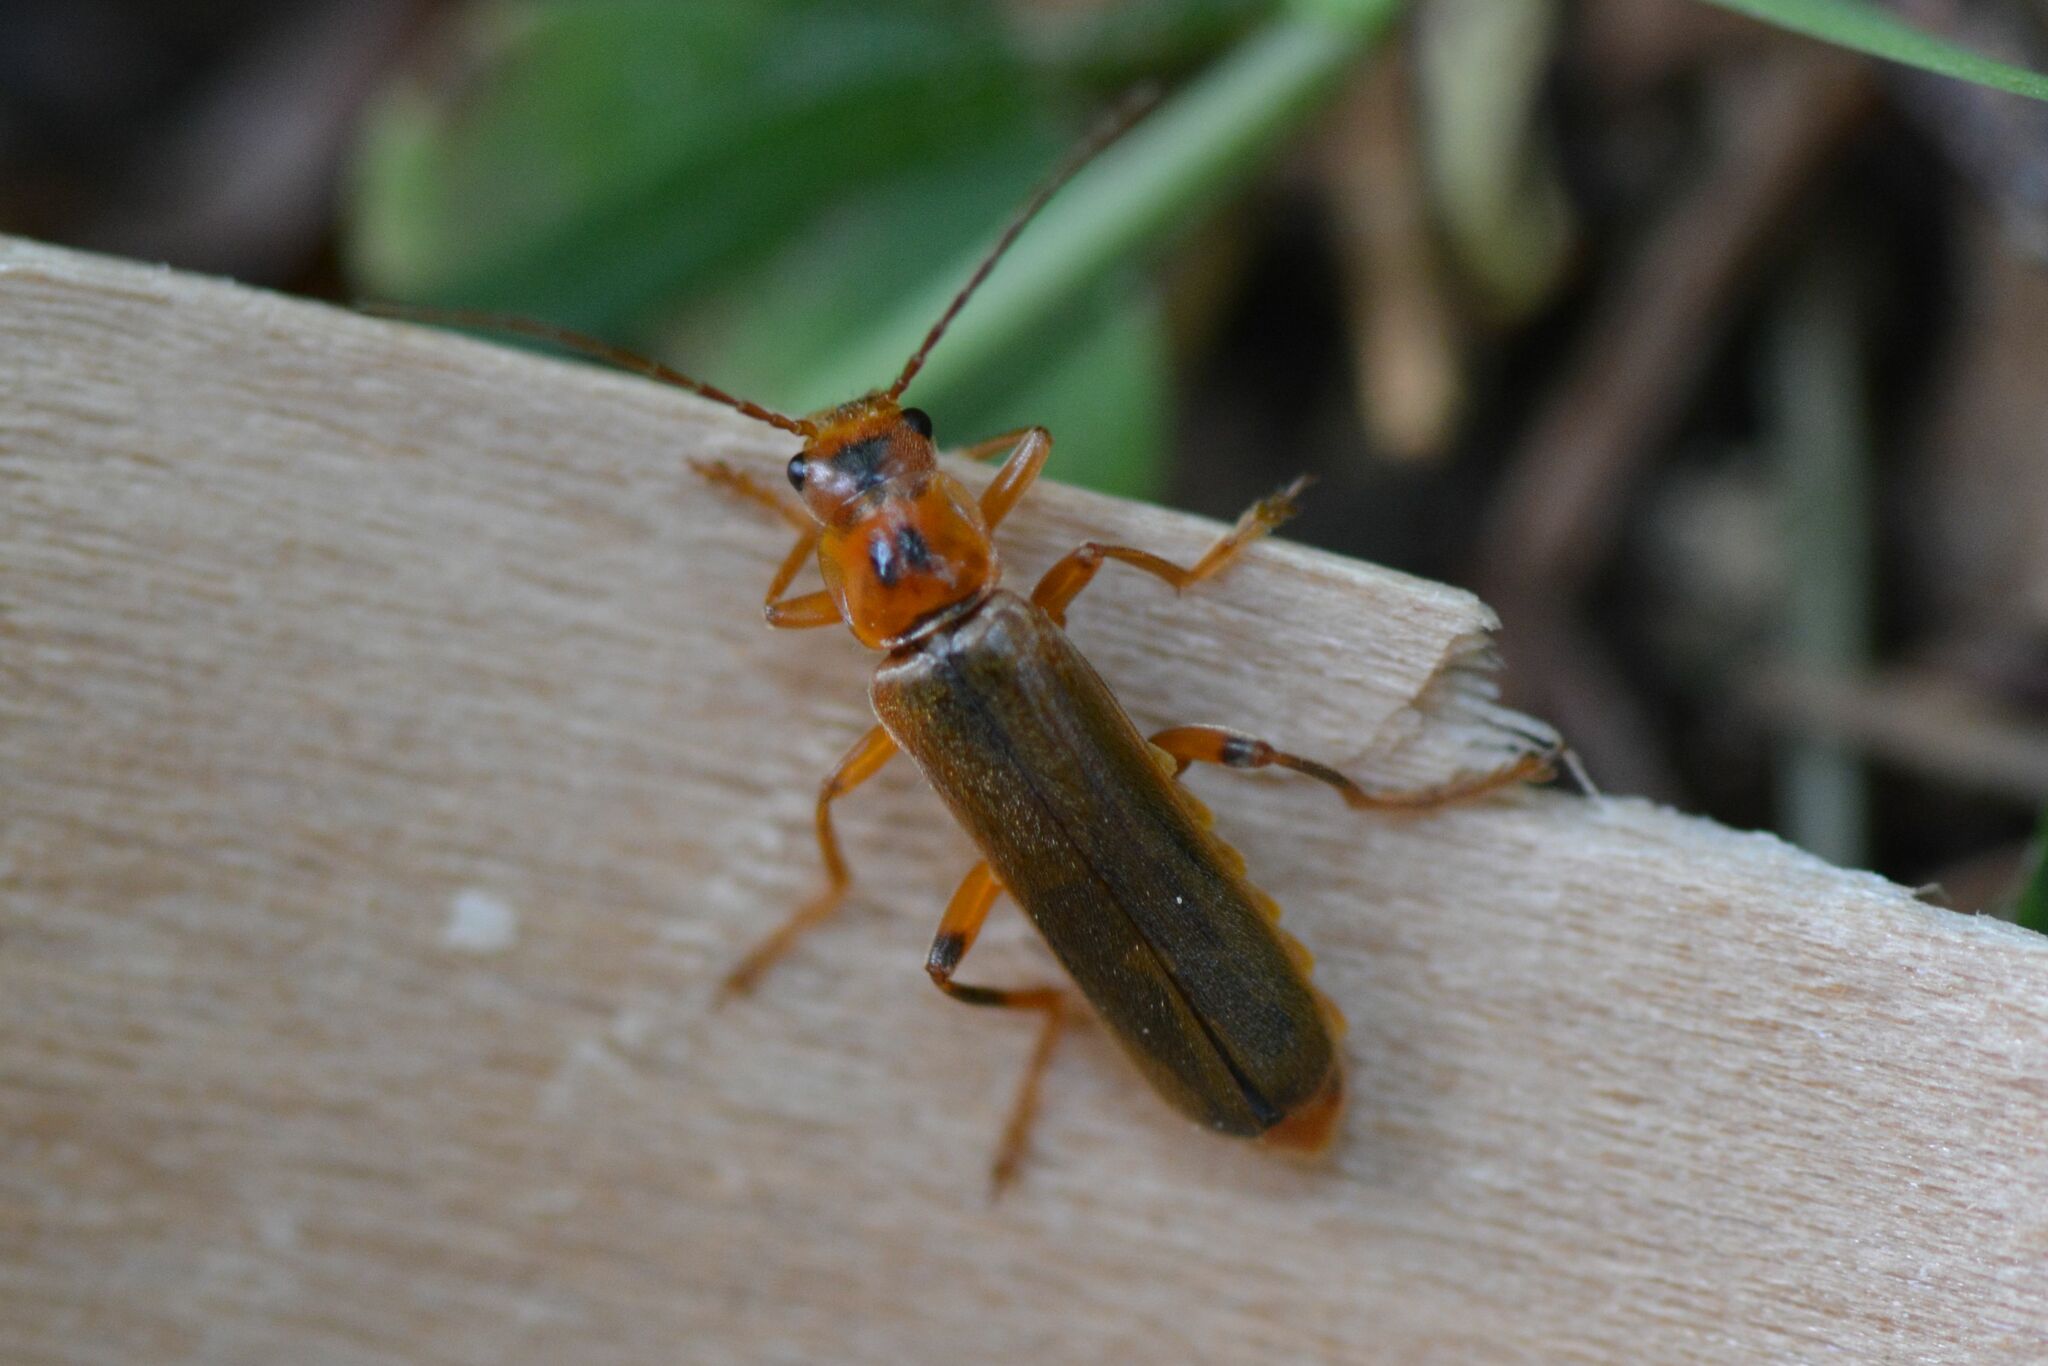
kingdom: Animalia
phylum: Arthropoda
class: Insecta
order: Coleoptera
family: Cantharidae
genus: Metacantharis
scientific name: Metacantharis discoidea
